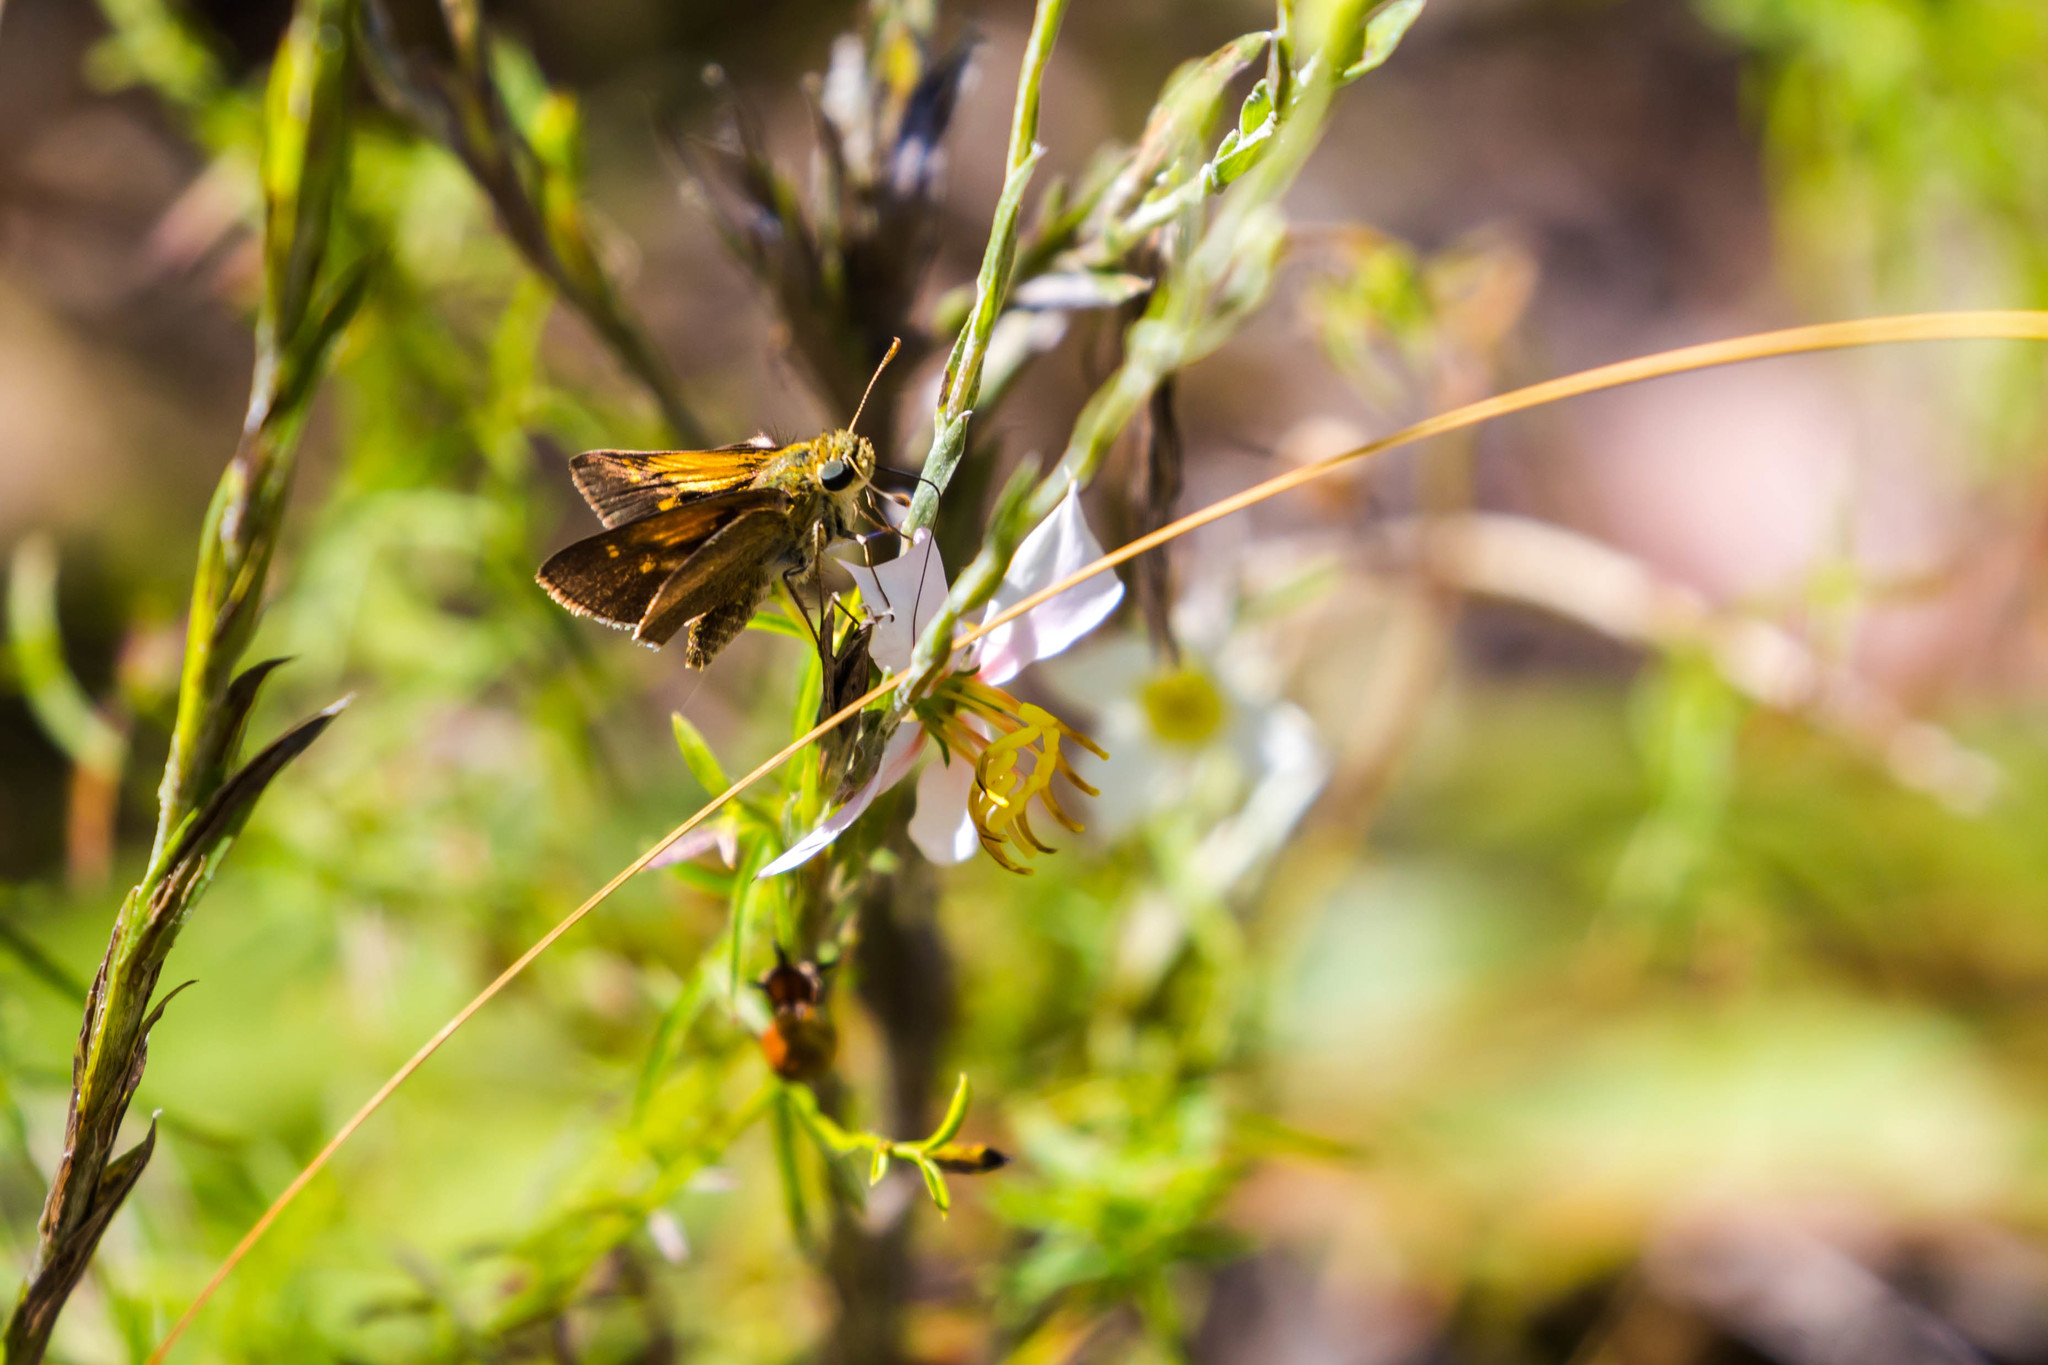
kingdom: Animalia
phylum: Arthropoda
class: Insecta
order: Lepidoptera
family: Hesperiidae
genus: Polites
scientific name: Polites themistocles
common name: Tawny-edged skipper
